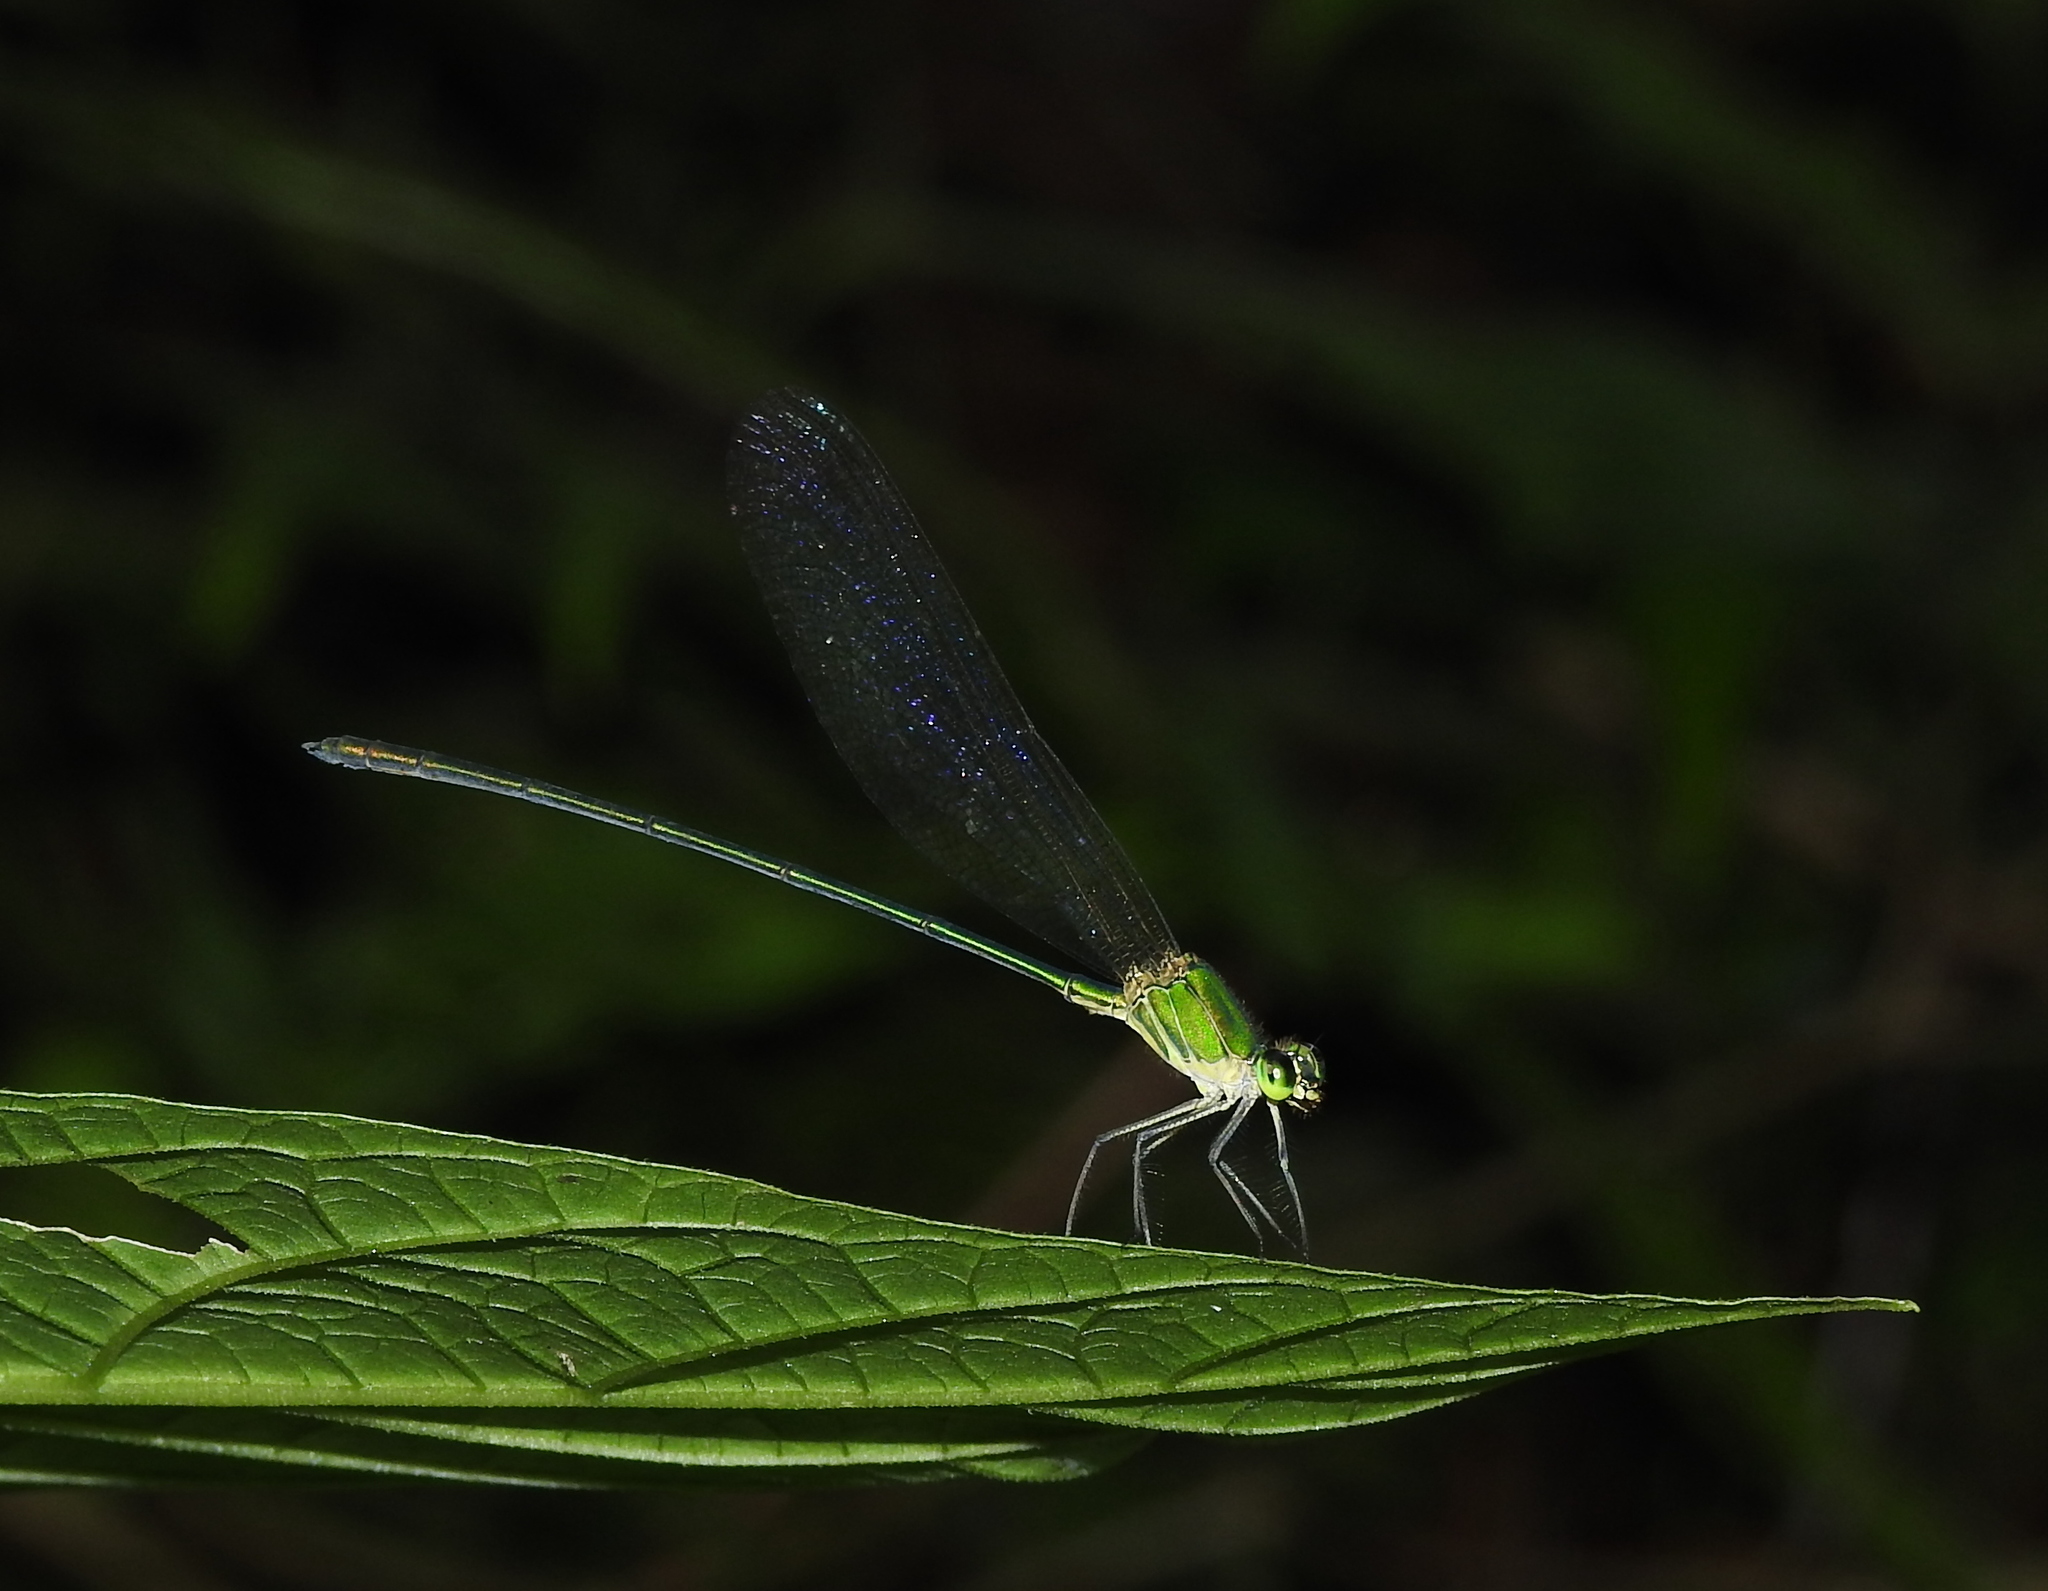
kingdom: Animalia
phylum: Arthropoda
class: Insecta
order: Odonata
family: Calopterygidae
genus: Vestalis
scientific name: Vestalis gracilis
